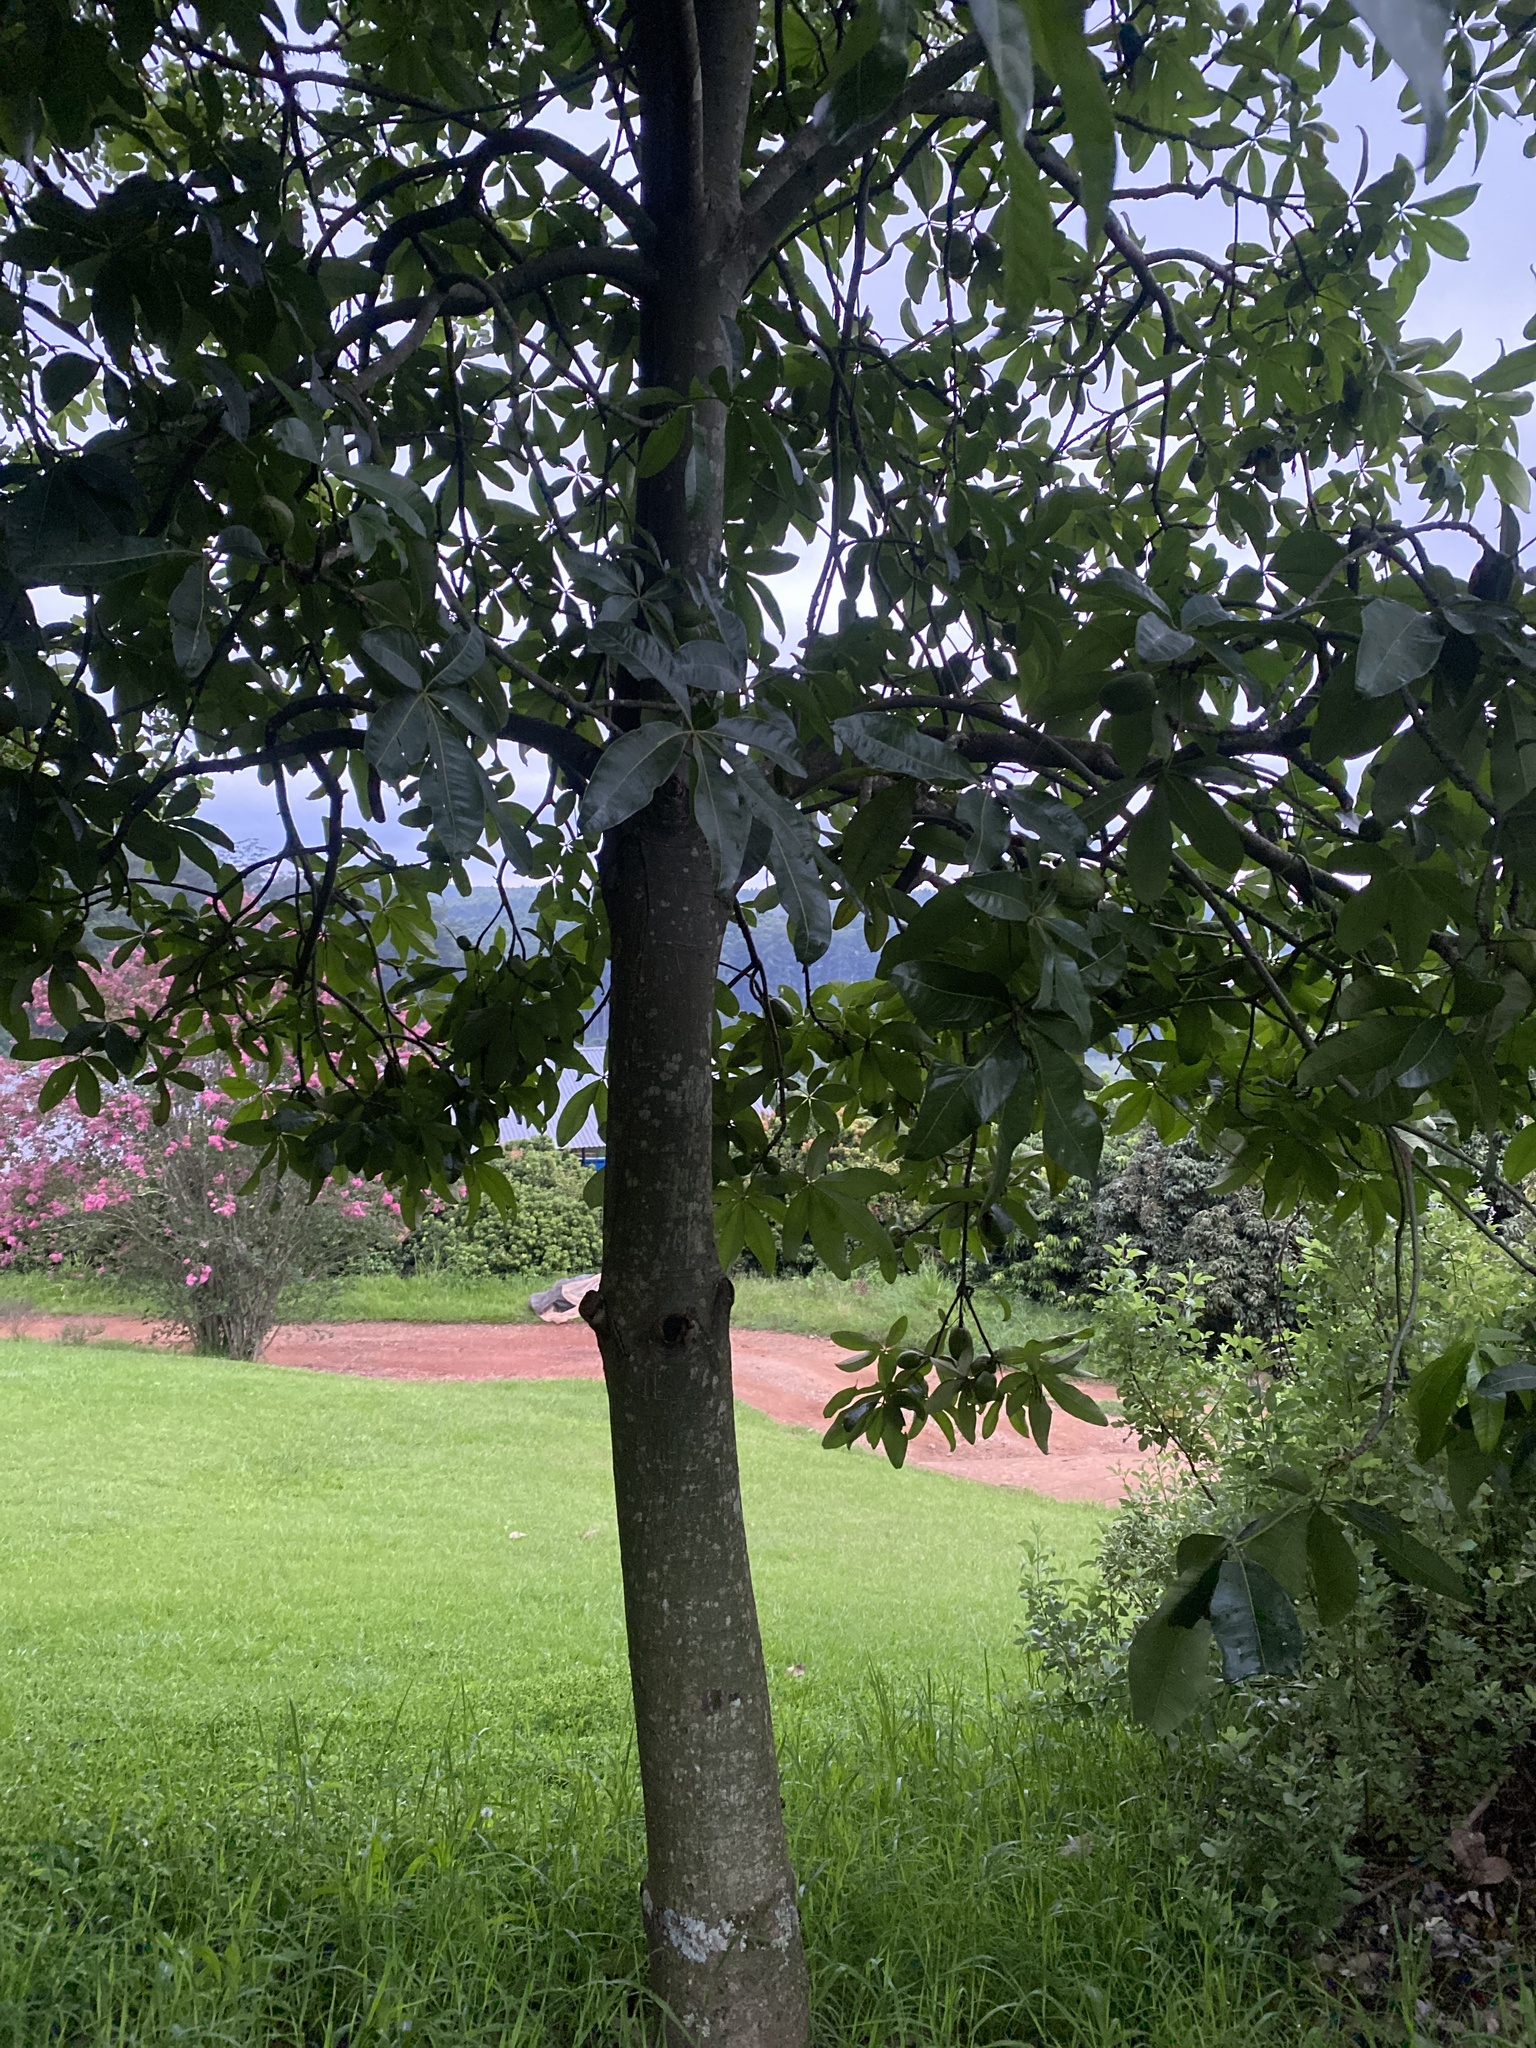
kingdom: Plantae
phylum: Tracheophyta
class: Magnoliopsida
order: Malvales
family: Malvaceae
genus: Pachira
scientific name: Pachira glabra
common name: Moneytree
